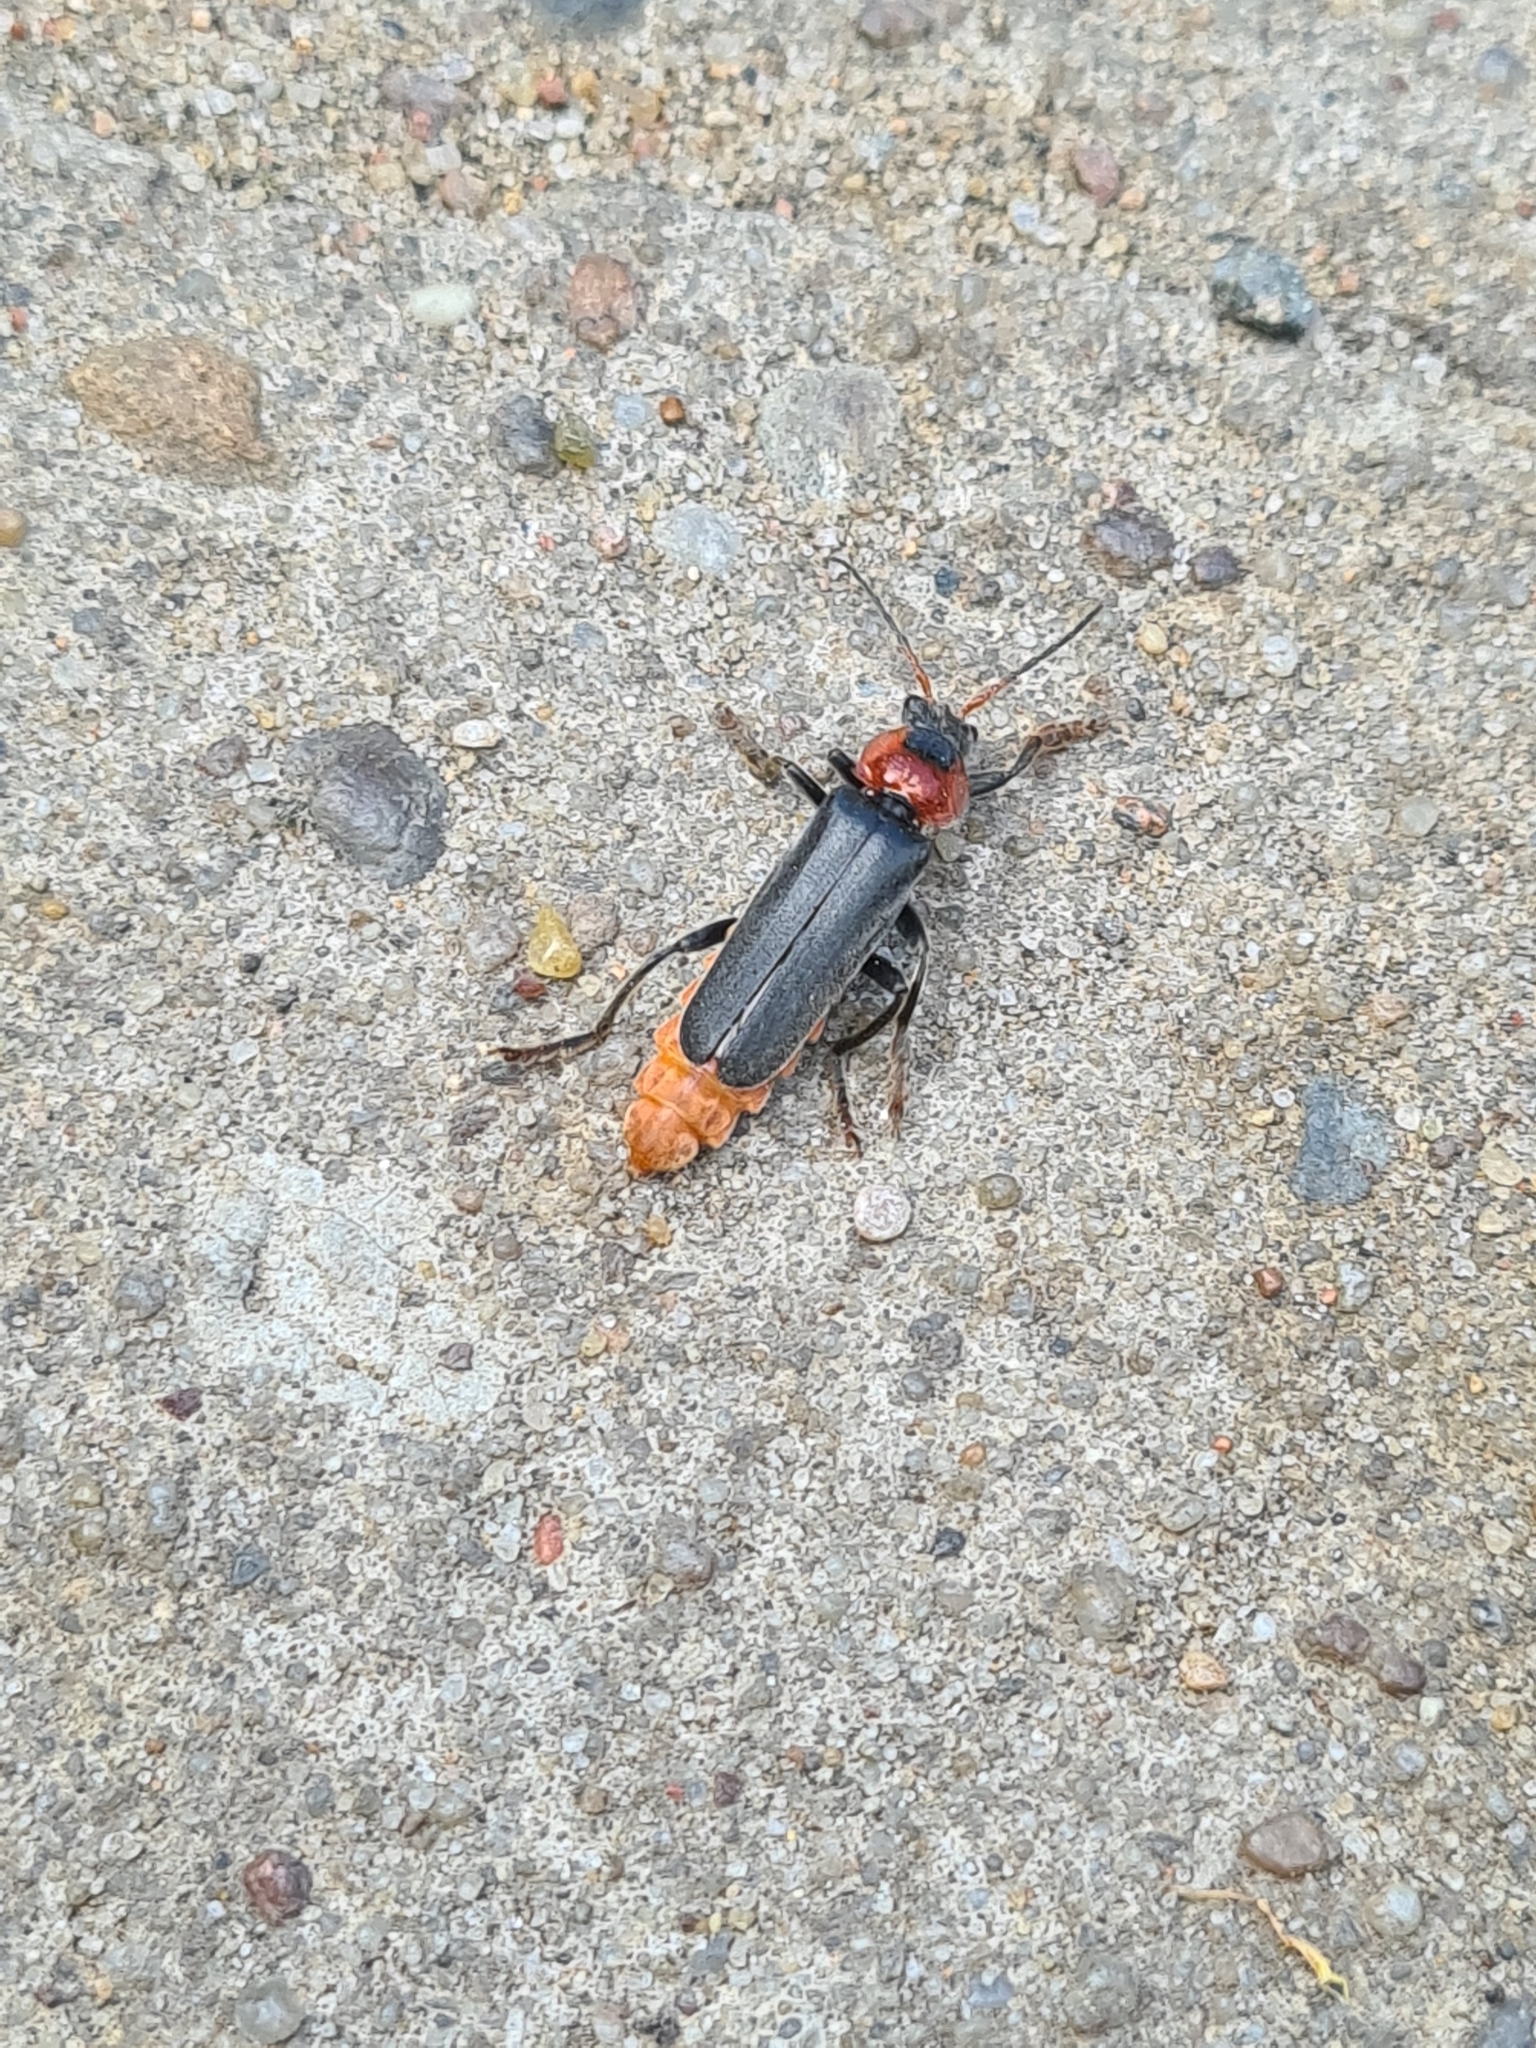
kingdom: Animalia
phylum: Arthropoda
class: Insecta
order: Coleoptera
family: Cantharidae
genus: Cantharis
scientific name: Cantharis fusca
